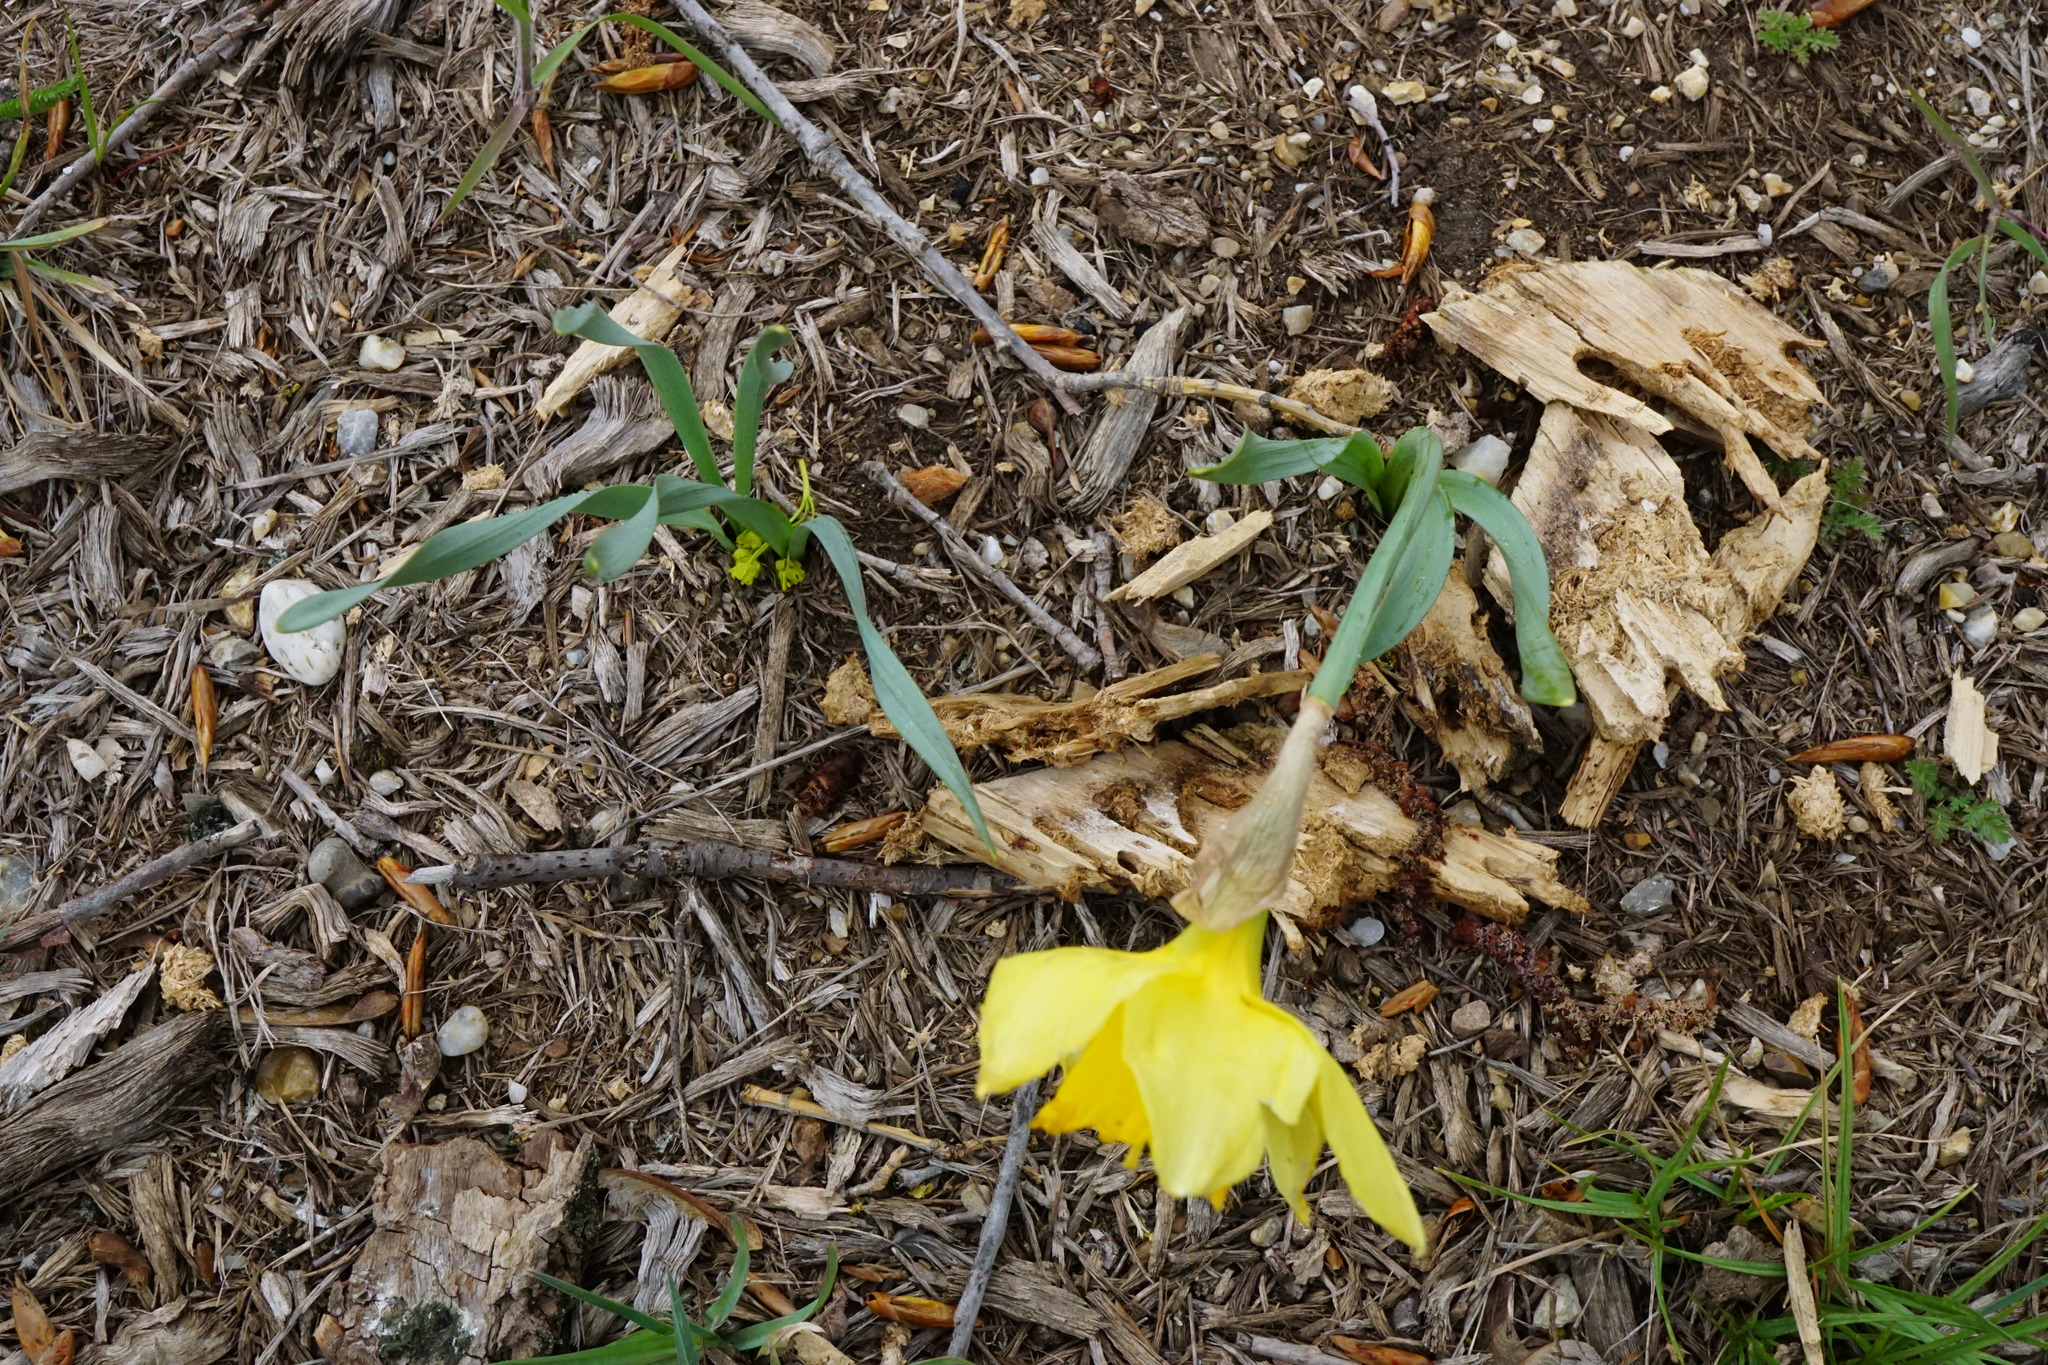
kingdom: Plantae
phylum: Tracheophyta
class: Liliopsida
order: Asparagales
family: Amaryllidaceae
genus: Narcissus
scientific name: Narcissus pseudonarcissus
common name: Daffodil
